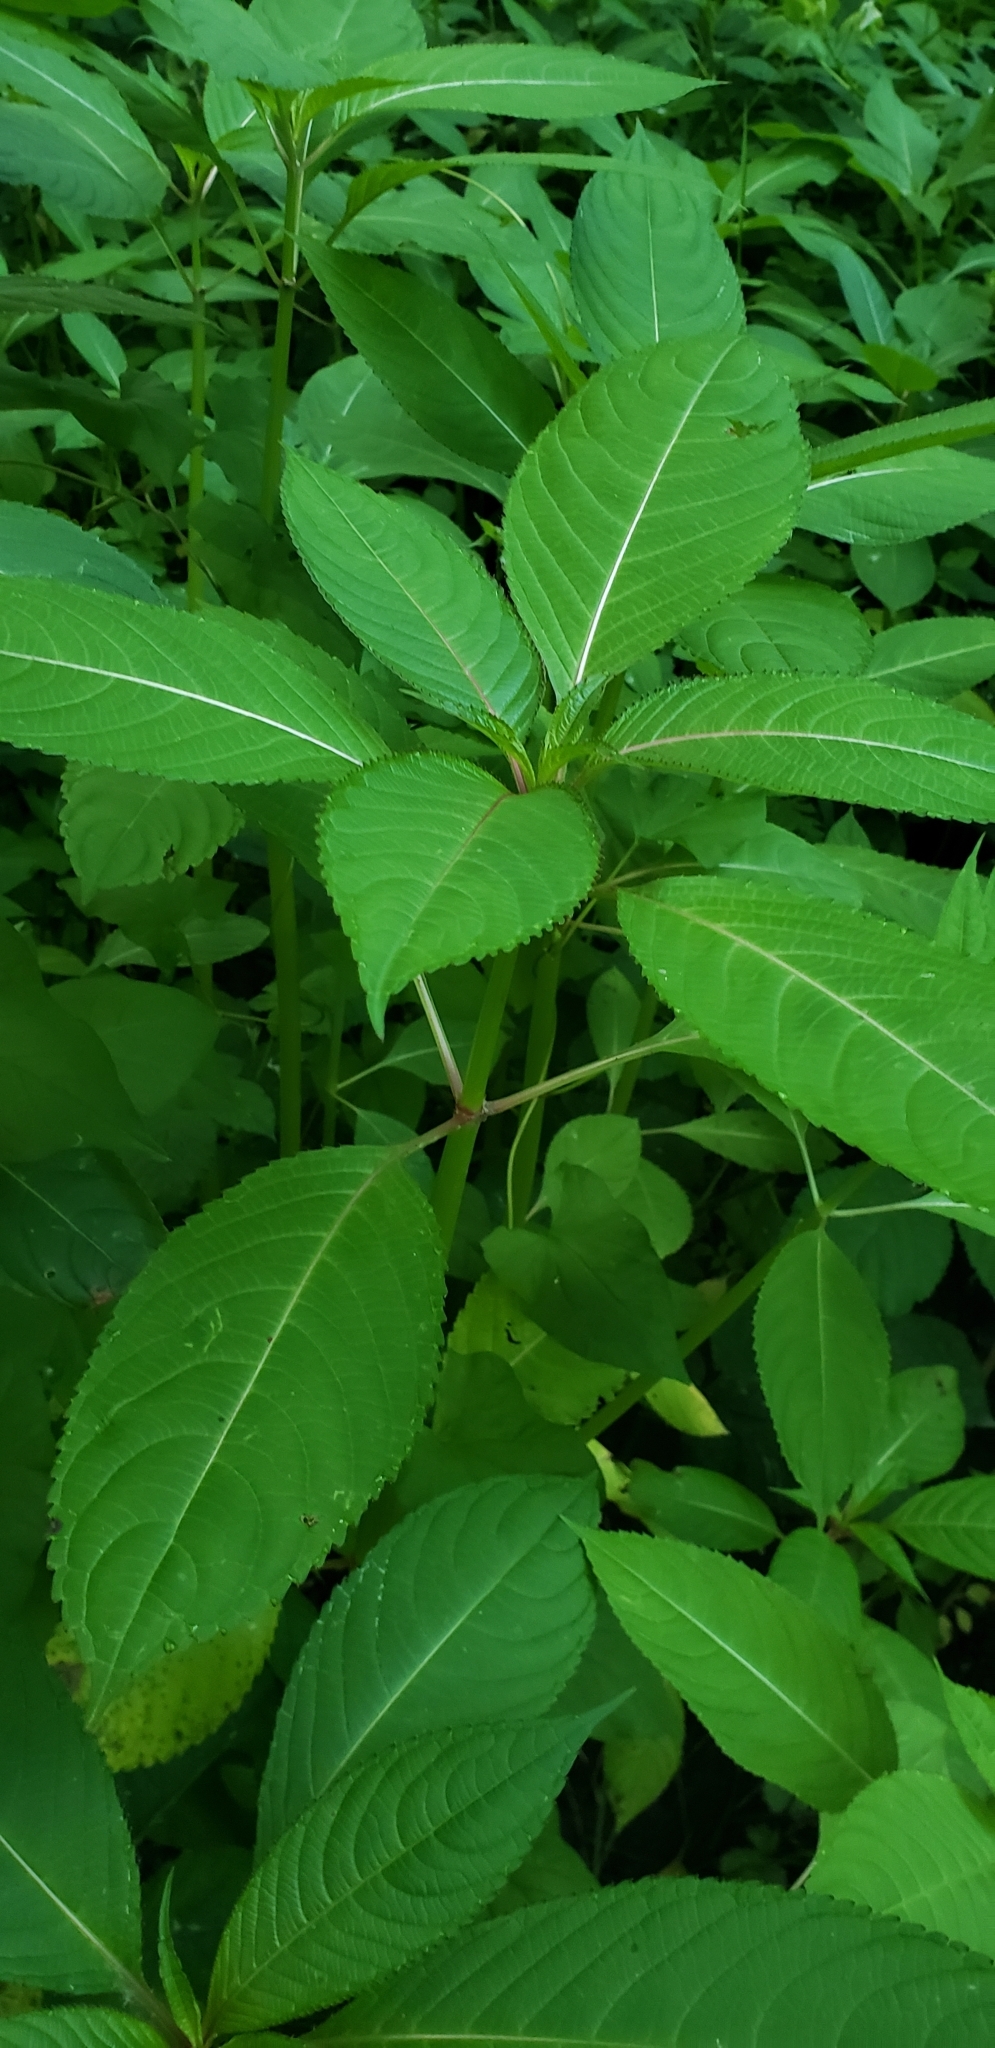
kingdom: Plantae
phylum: Tracheophyta
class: Magnoliopsida
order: Ericales
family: Balsaminaceae
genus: Impatiens
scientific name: Impatiens glandulifera
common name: Himalayan balsam
